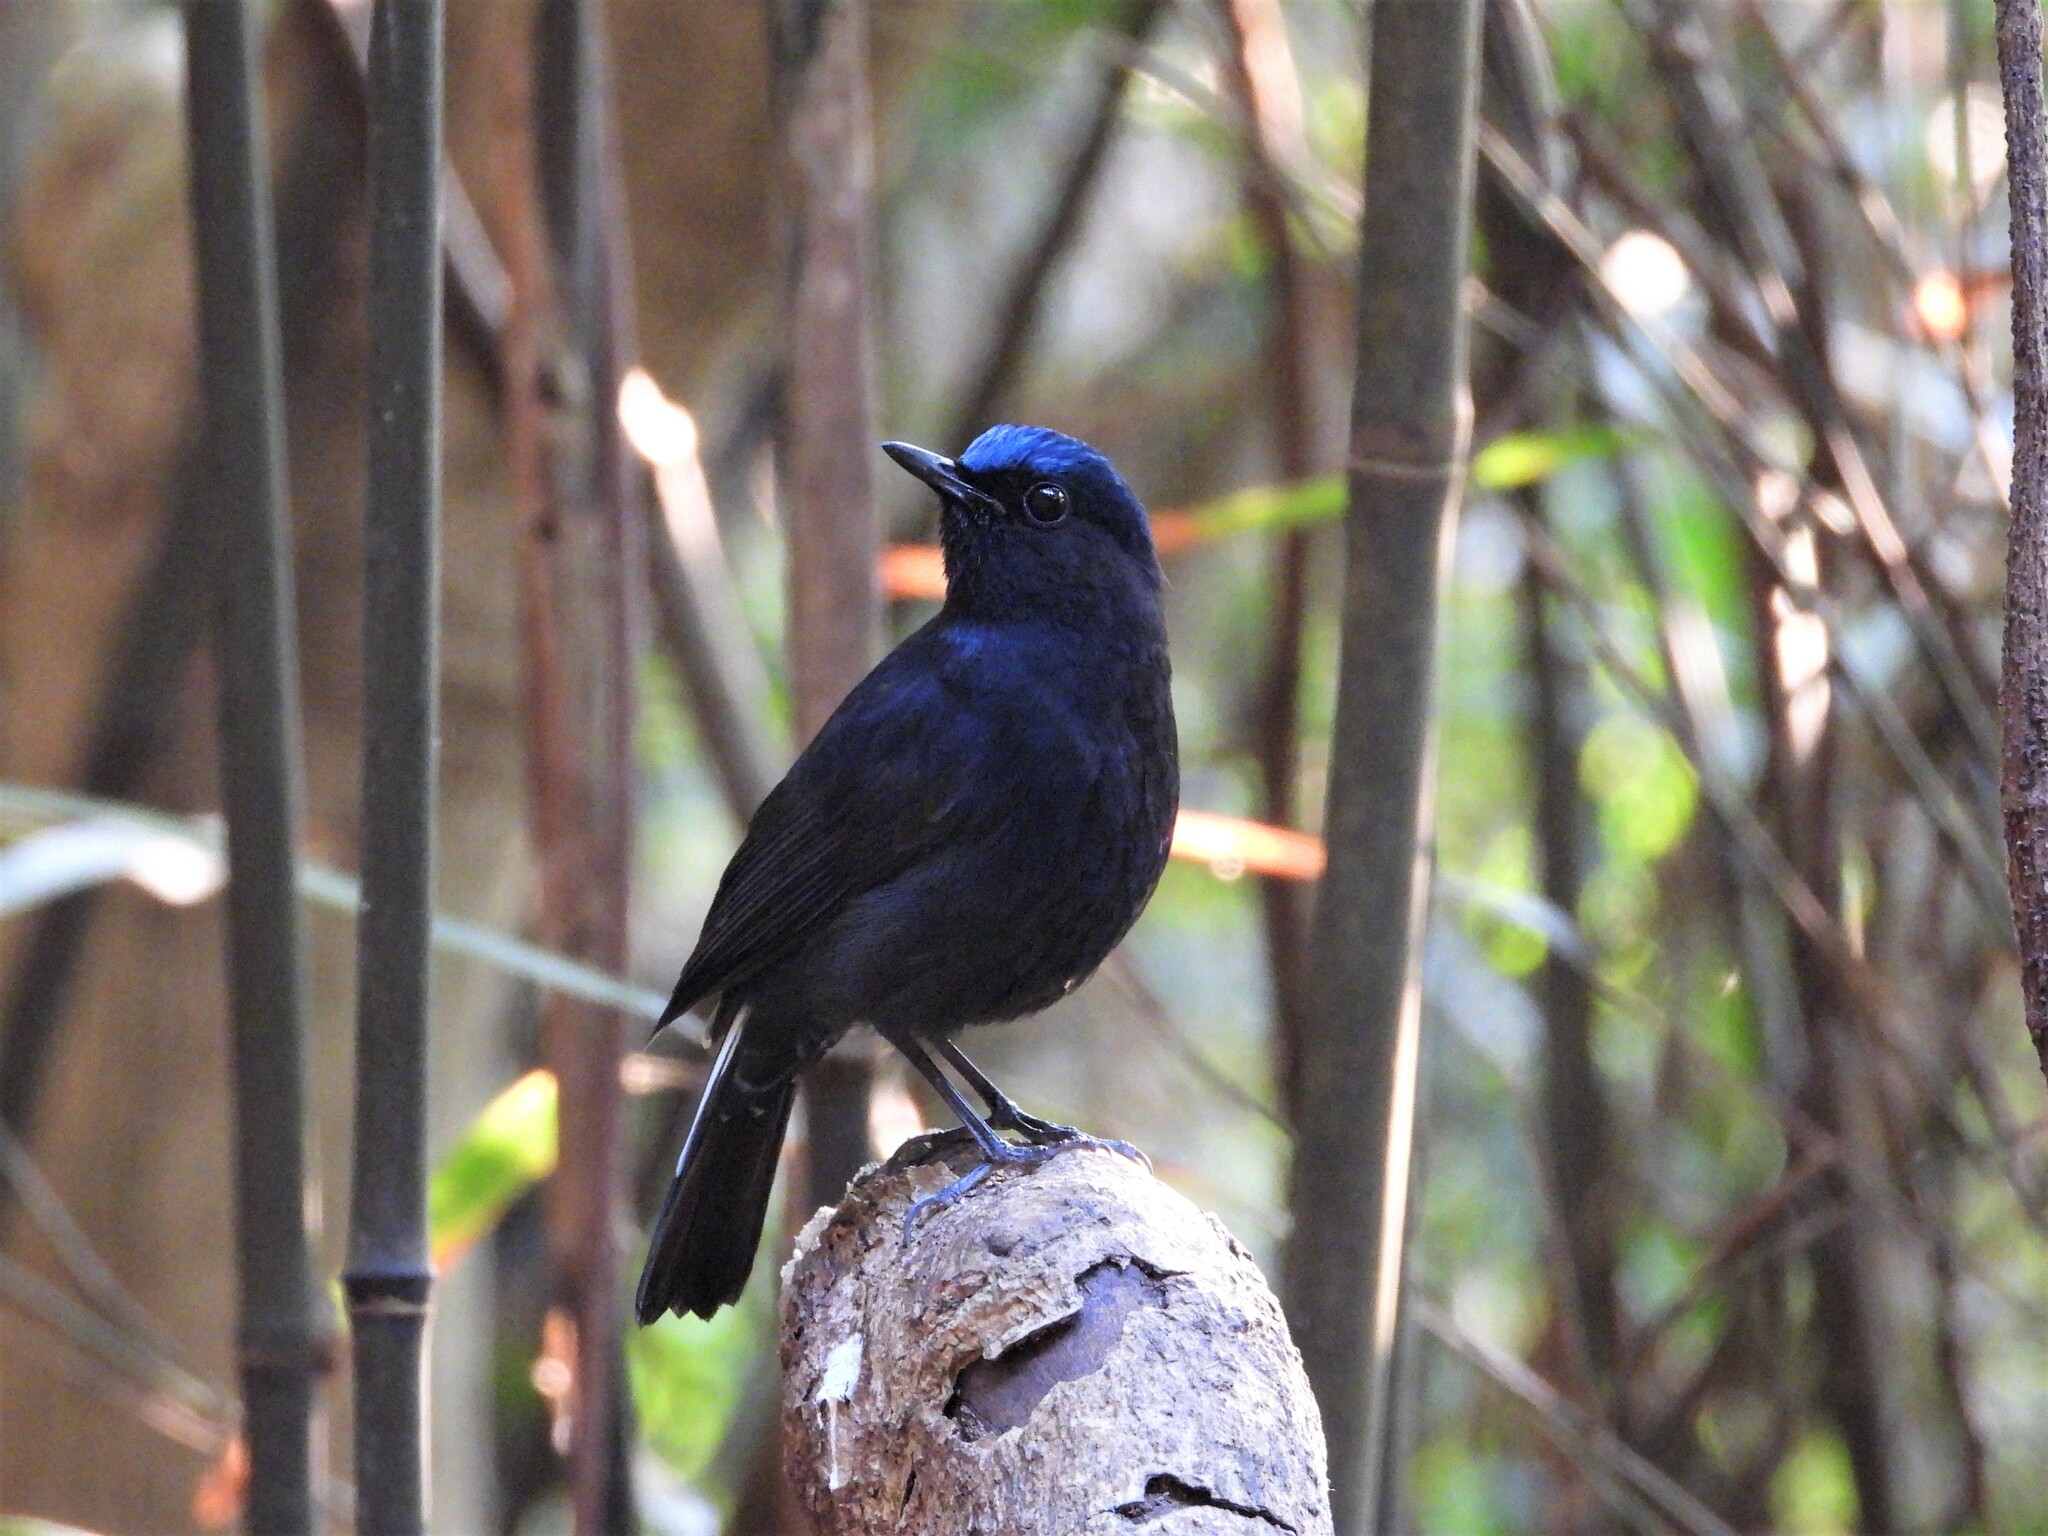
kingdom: Animalia
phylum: Chordata
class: Aves
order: Passeriformes
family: Muscicapidae
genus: Myiomela
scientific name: Myiomela leucura
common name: White-tailed robin
